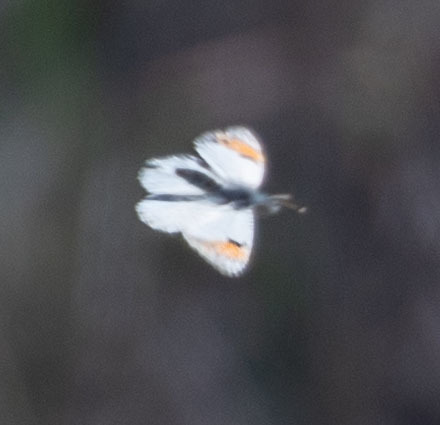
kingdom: Animalia
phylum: Arthropoda
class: Insecta
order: Lepidoptera
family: Pieridae
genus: Anthocharis
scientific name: Anthocharis sara
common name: Sara's orangetip
